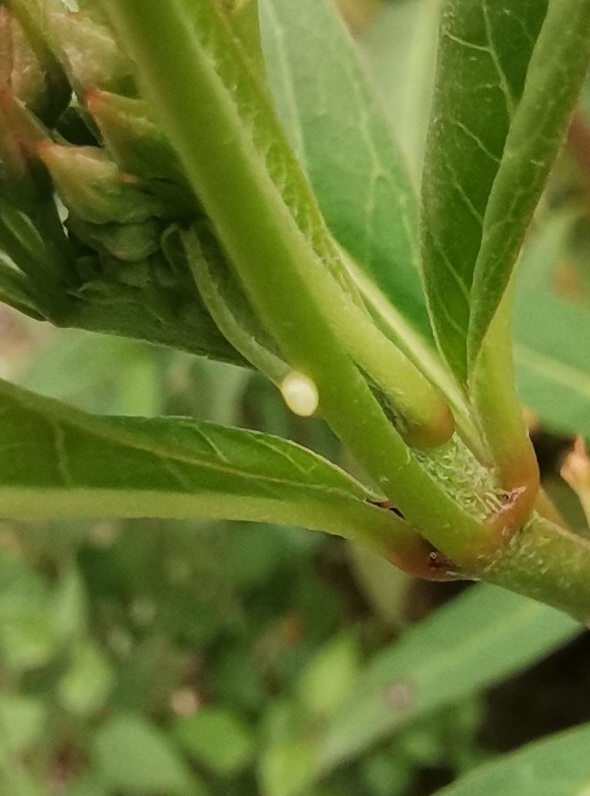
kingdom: Animalia
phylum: Arthropoda
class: Insecta
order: Lepidoptera
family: Nymphalidae
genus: Danaus
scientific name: Danaus plexippus
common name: Monarch
